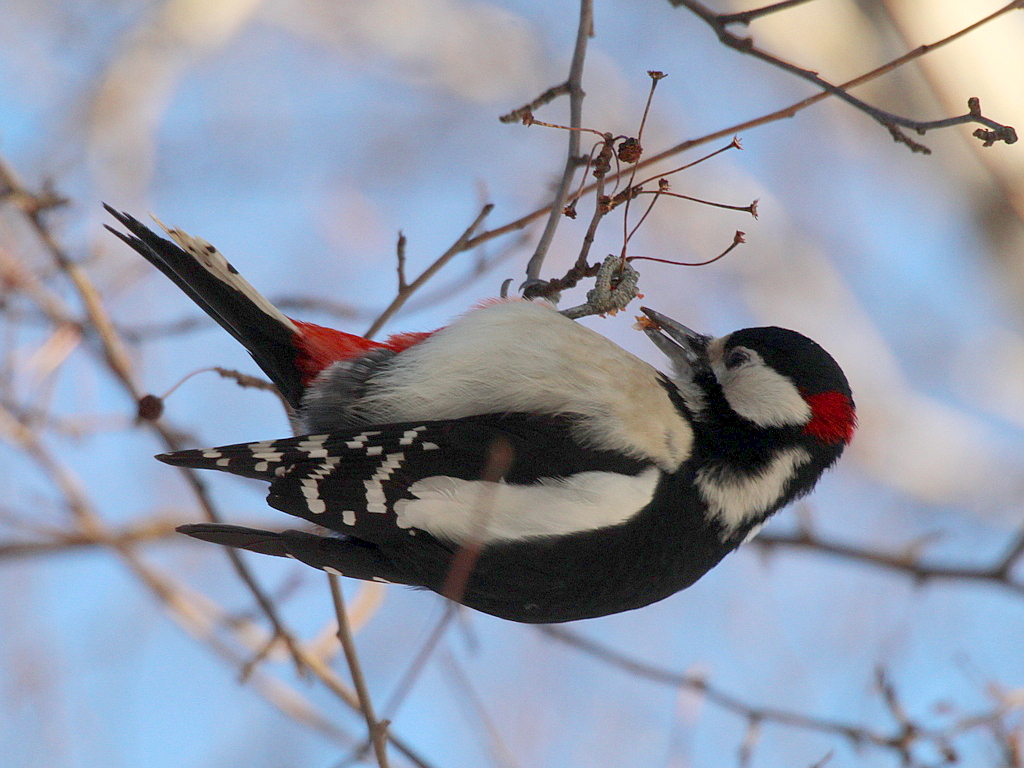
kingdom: Animalia
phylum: Chordata
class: Aves
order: Piciformes
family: Picidae
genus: Dendrocopos
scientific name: Dendrocopos major
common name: Great spotted woodpecker
